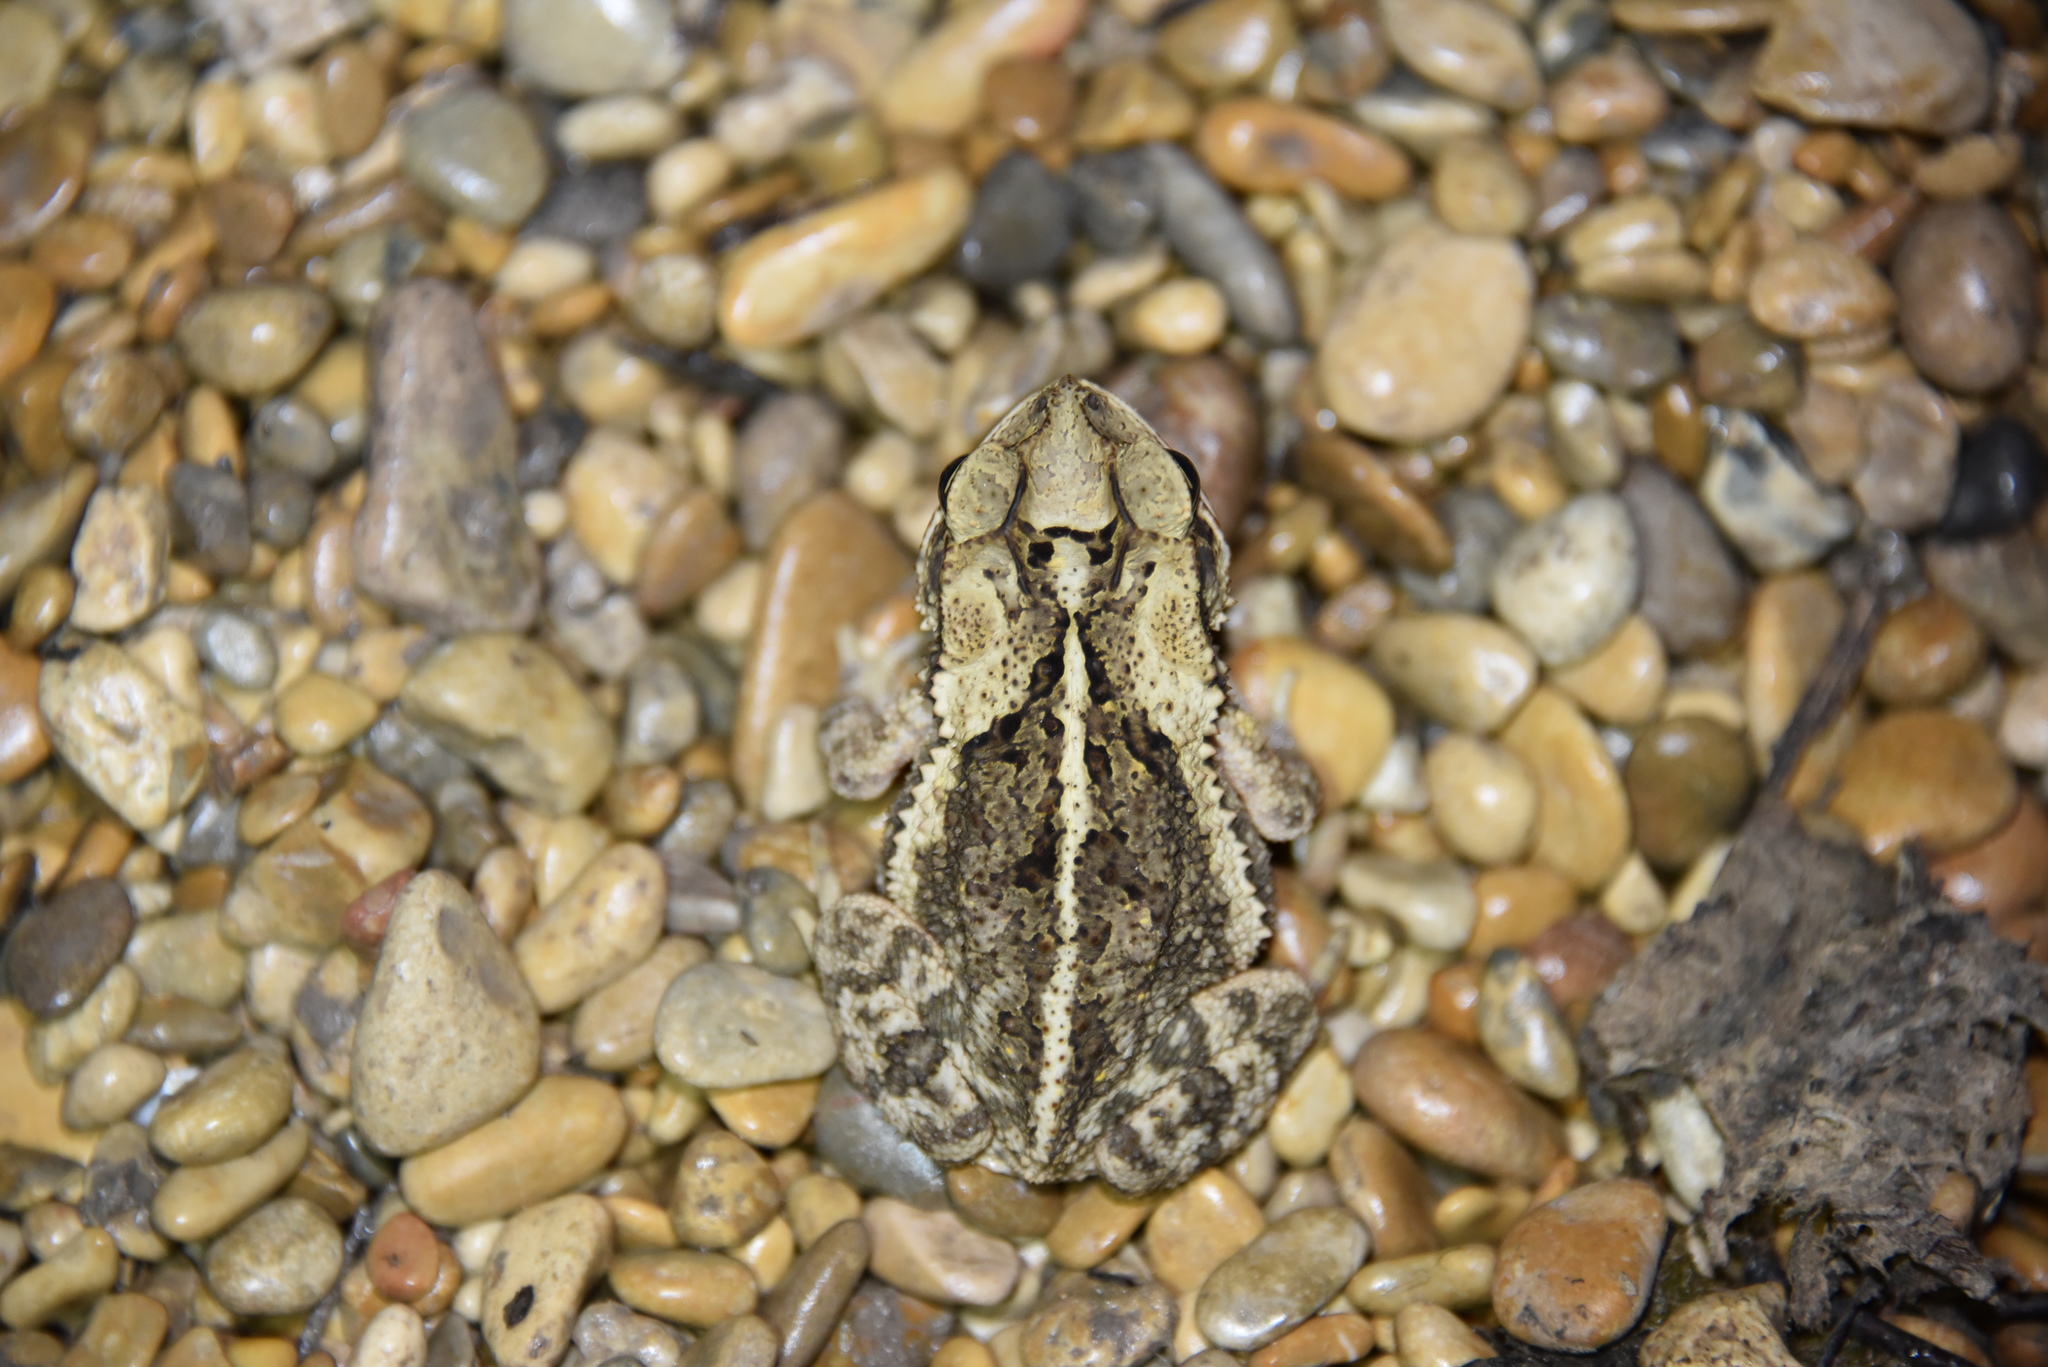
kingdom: Animalia
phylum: Chordata
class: Amphibia
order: Anura
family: Bufonidae
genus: Incilius
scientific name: Incilius nebulifer
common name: Gulf coast toad
